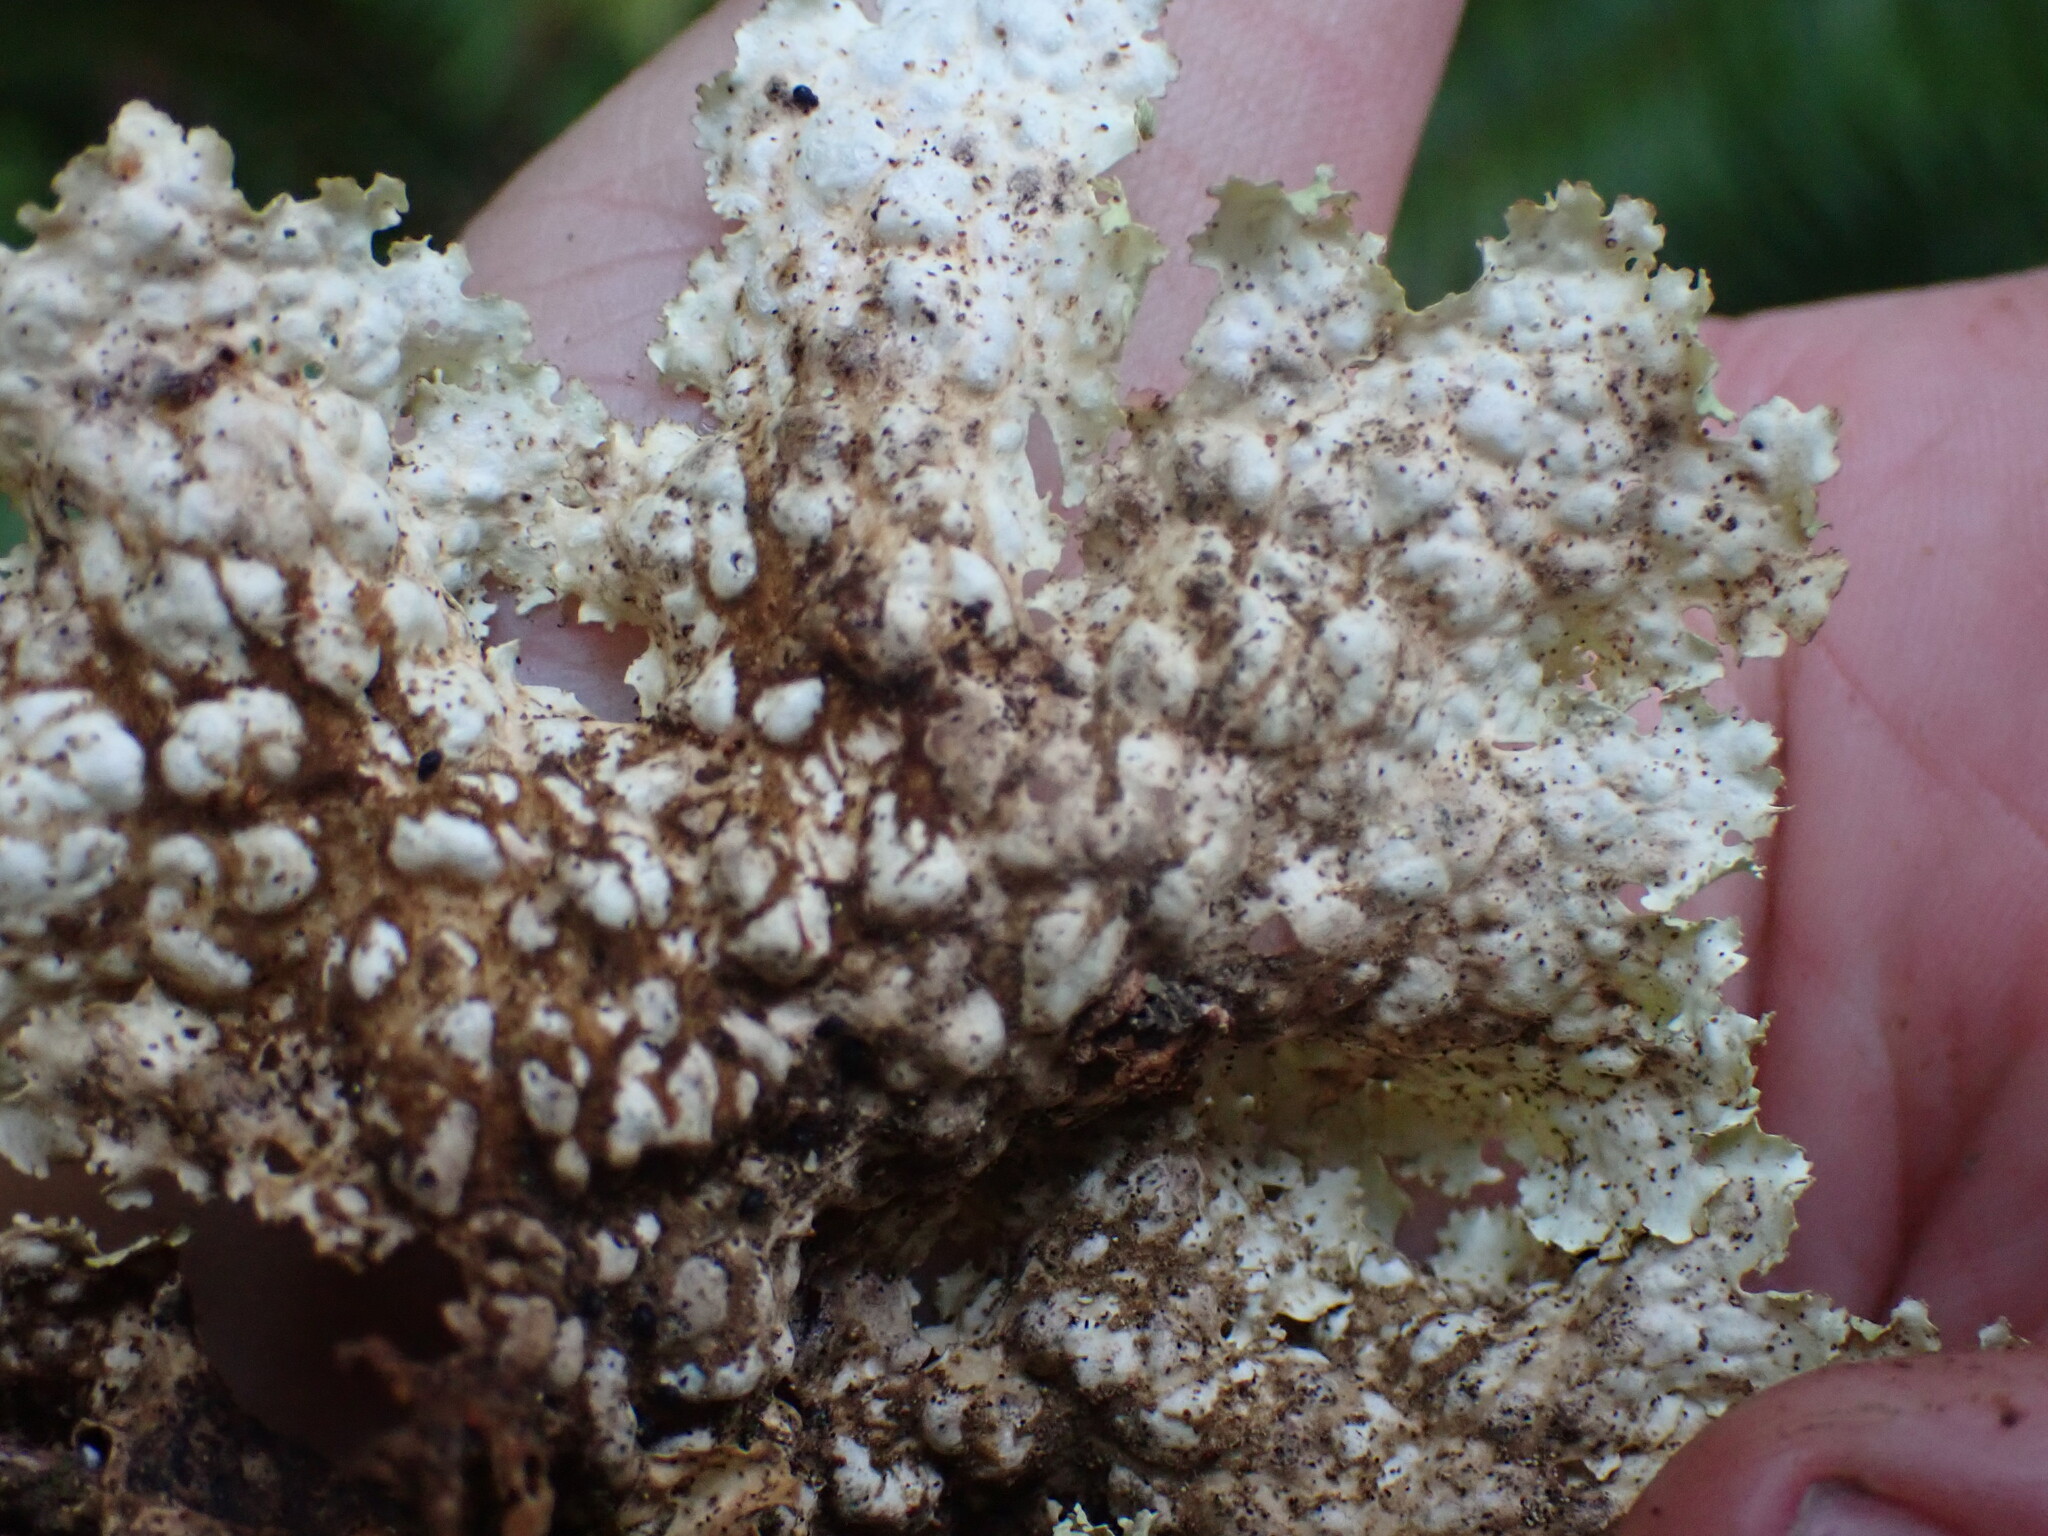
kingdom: Fungi
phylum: Ascomycota
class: Lecanoromycetes
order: Peltigerales
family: Lobariaceae
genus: Lobaria
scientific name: Lobaria oregana
